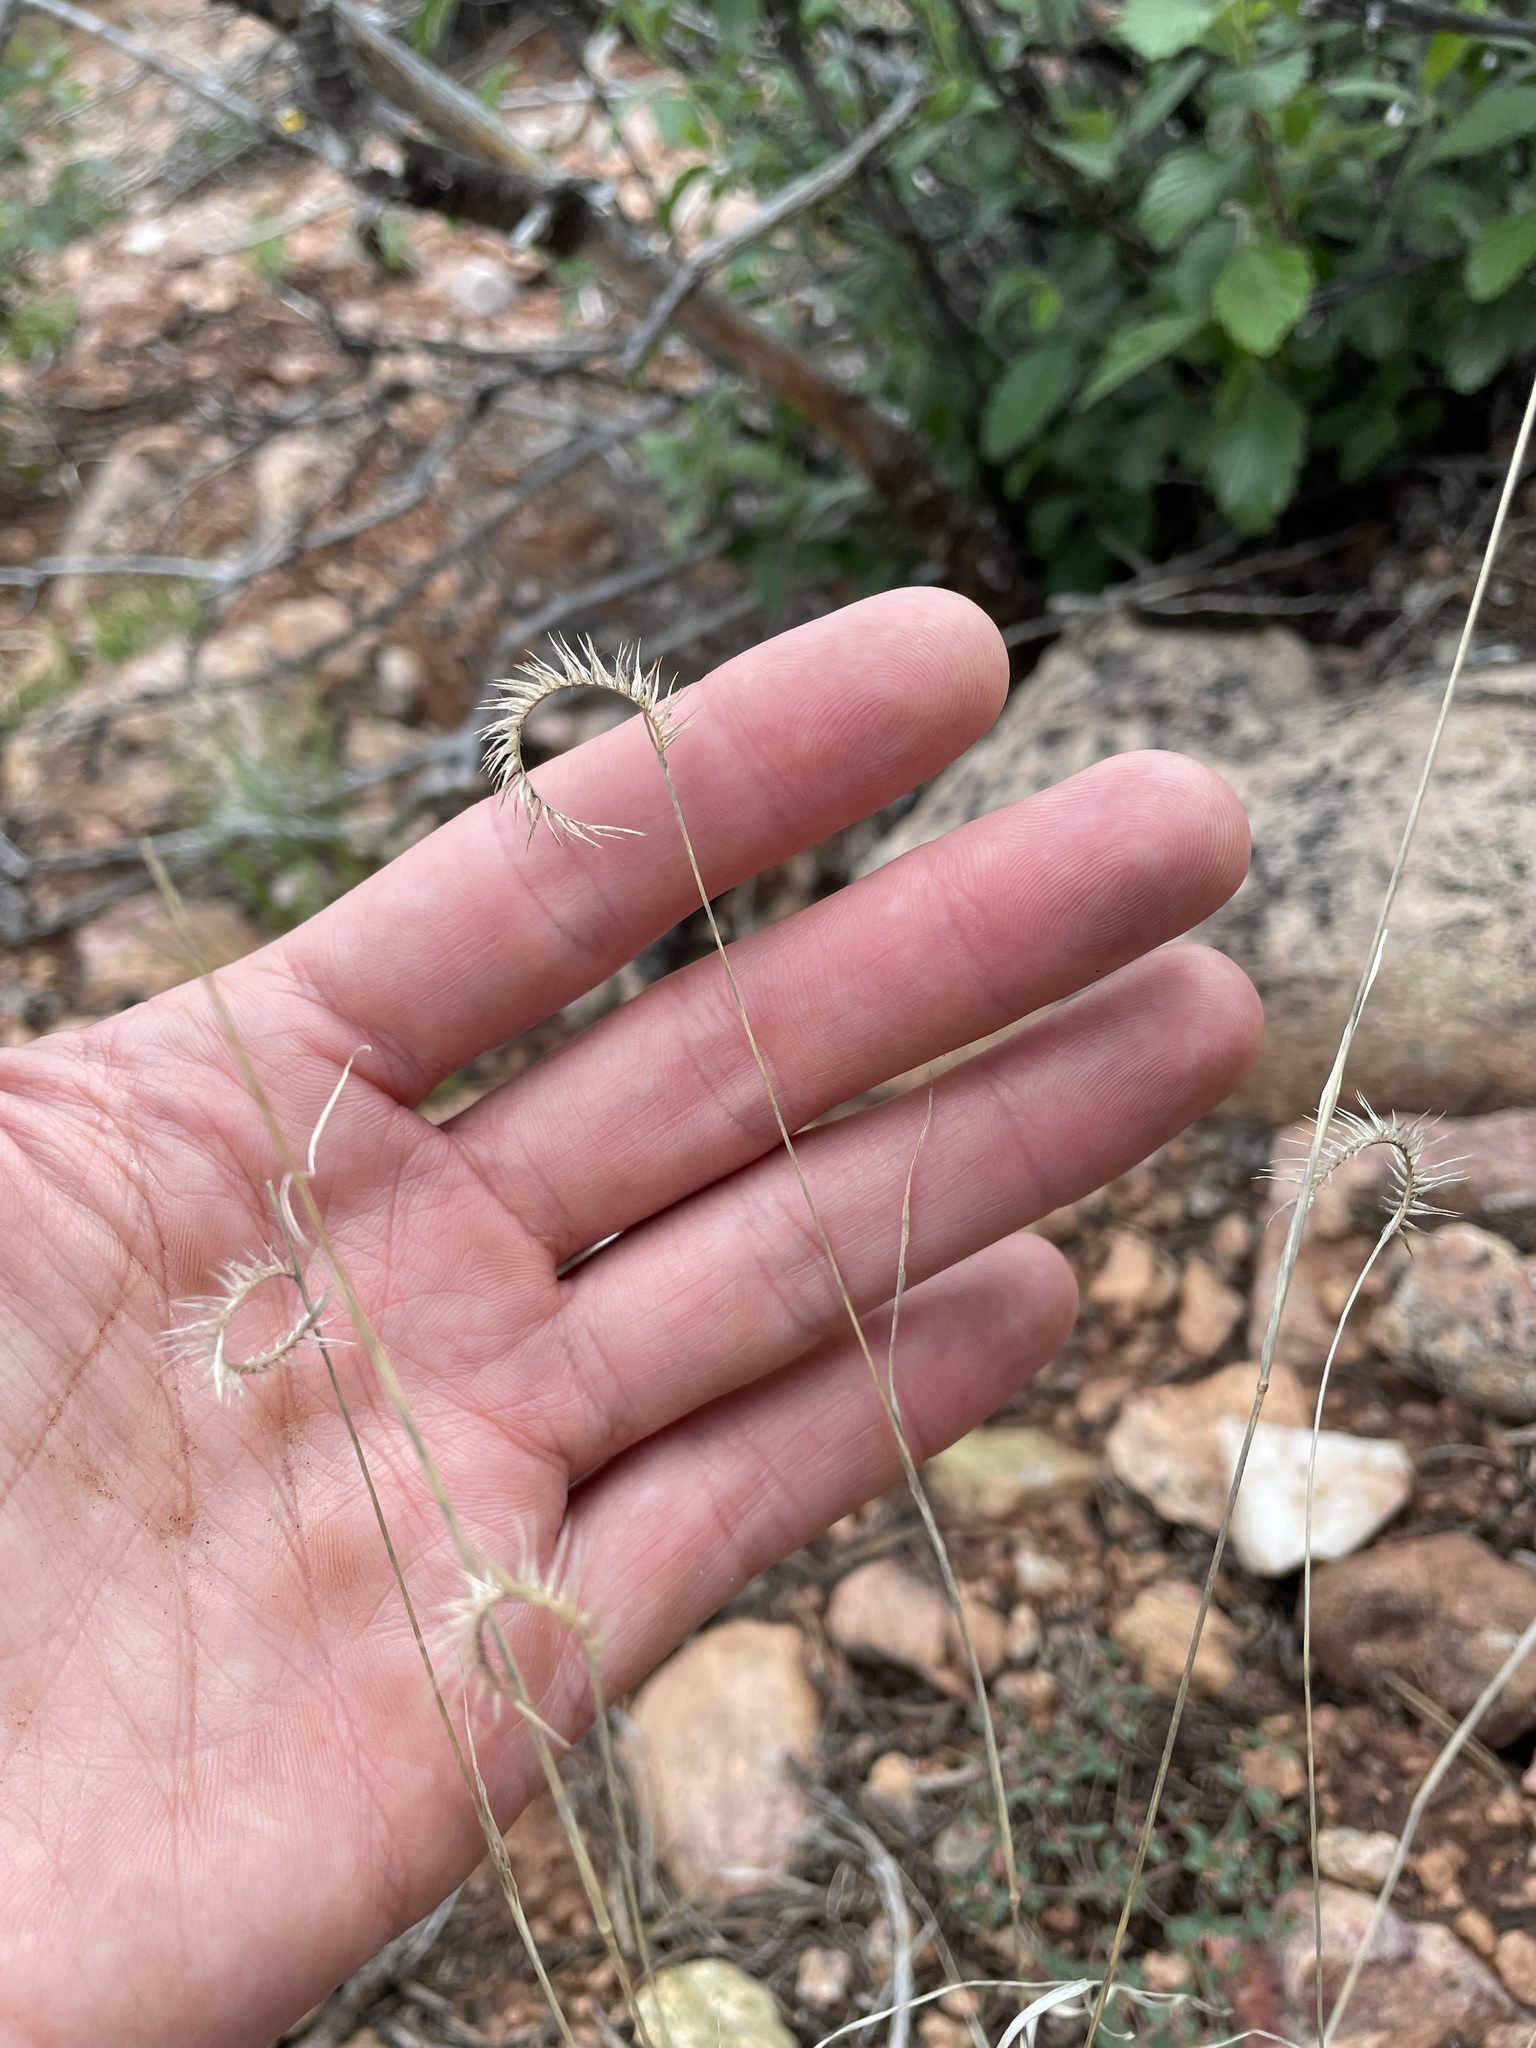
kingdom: Plantae
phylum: Tracheophyta
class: Liliopsida
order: Poales
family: Poaceae
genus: Bouteloua
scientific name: Bouteloua gracilis
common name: Blue grama
